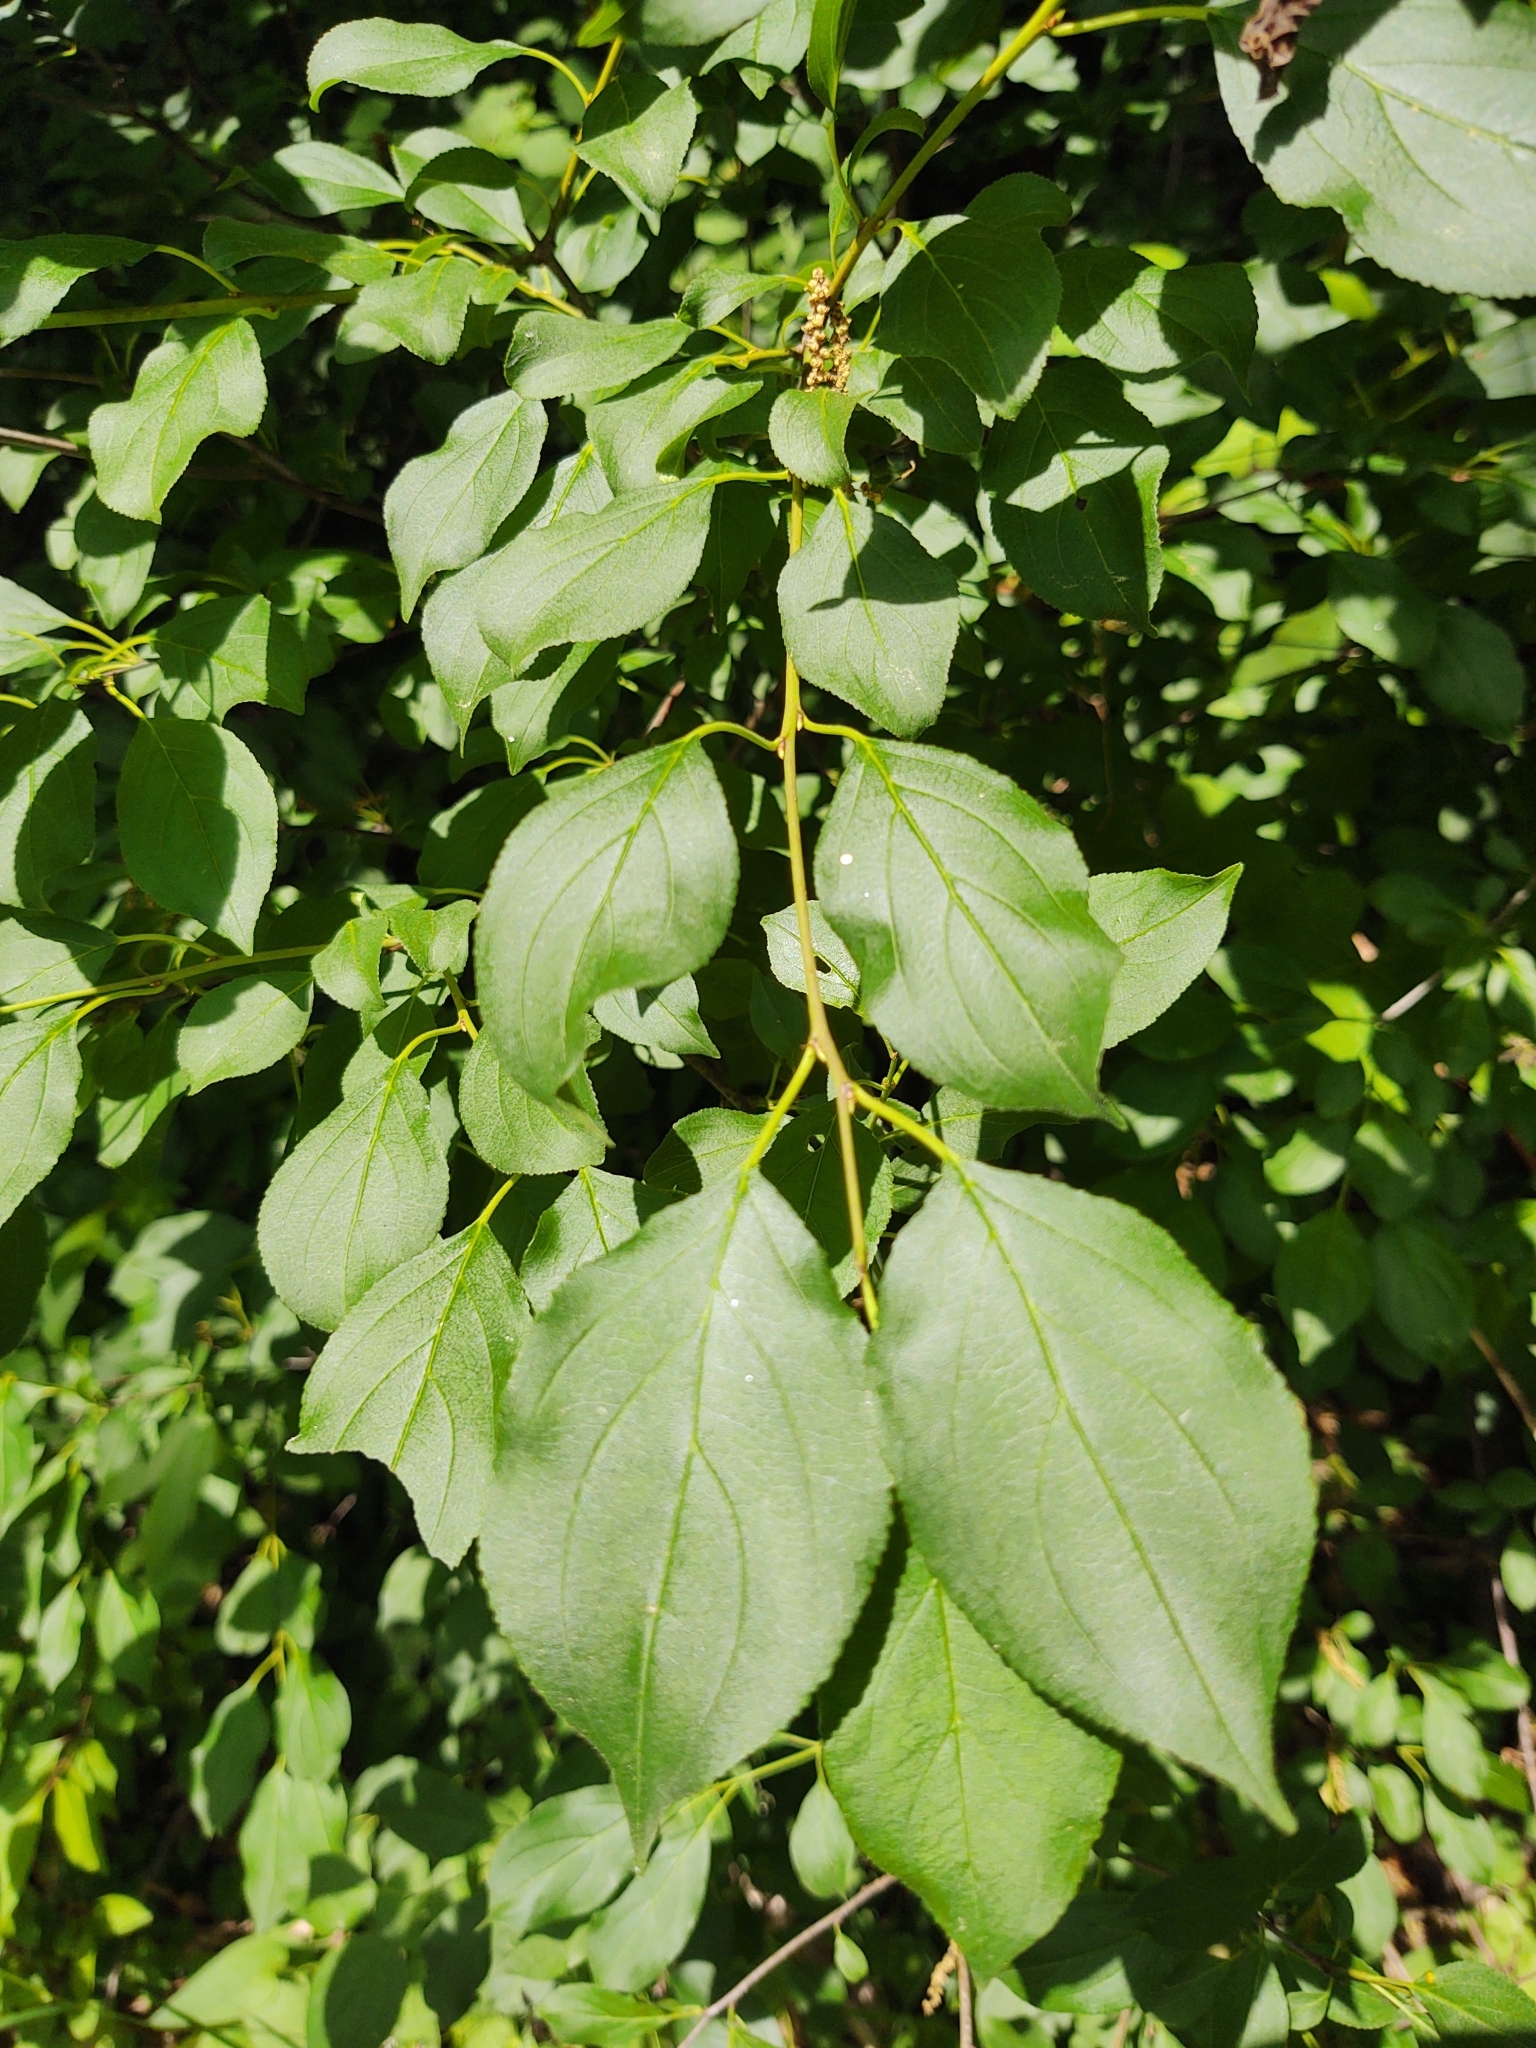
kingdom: Plantae
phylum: Tracheophyta
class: Magnoliopsida
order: Rosales
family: Rhamnaceae
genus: Rhamnus
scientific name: Rhamnus cathartica
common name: Common buckthorn
